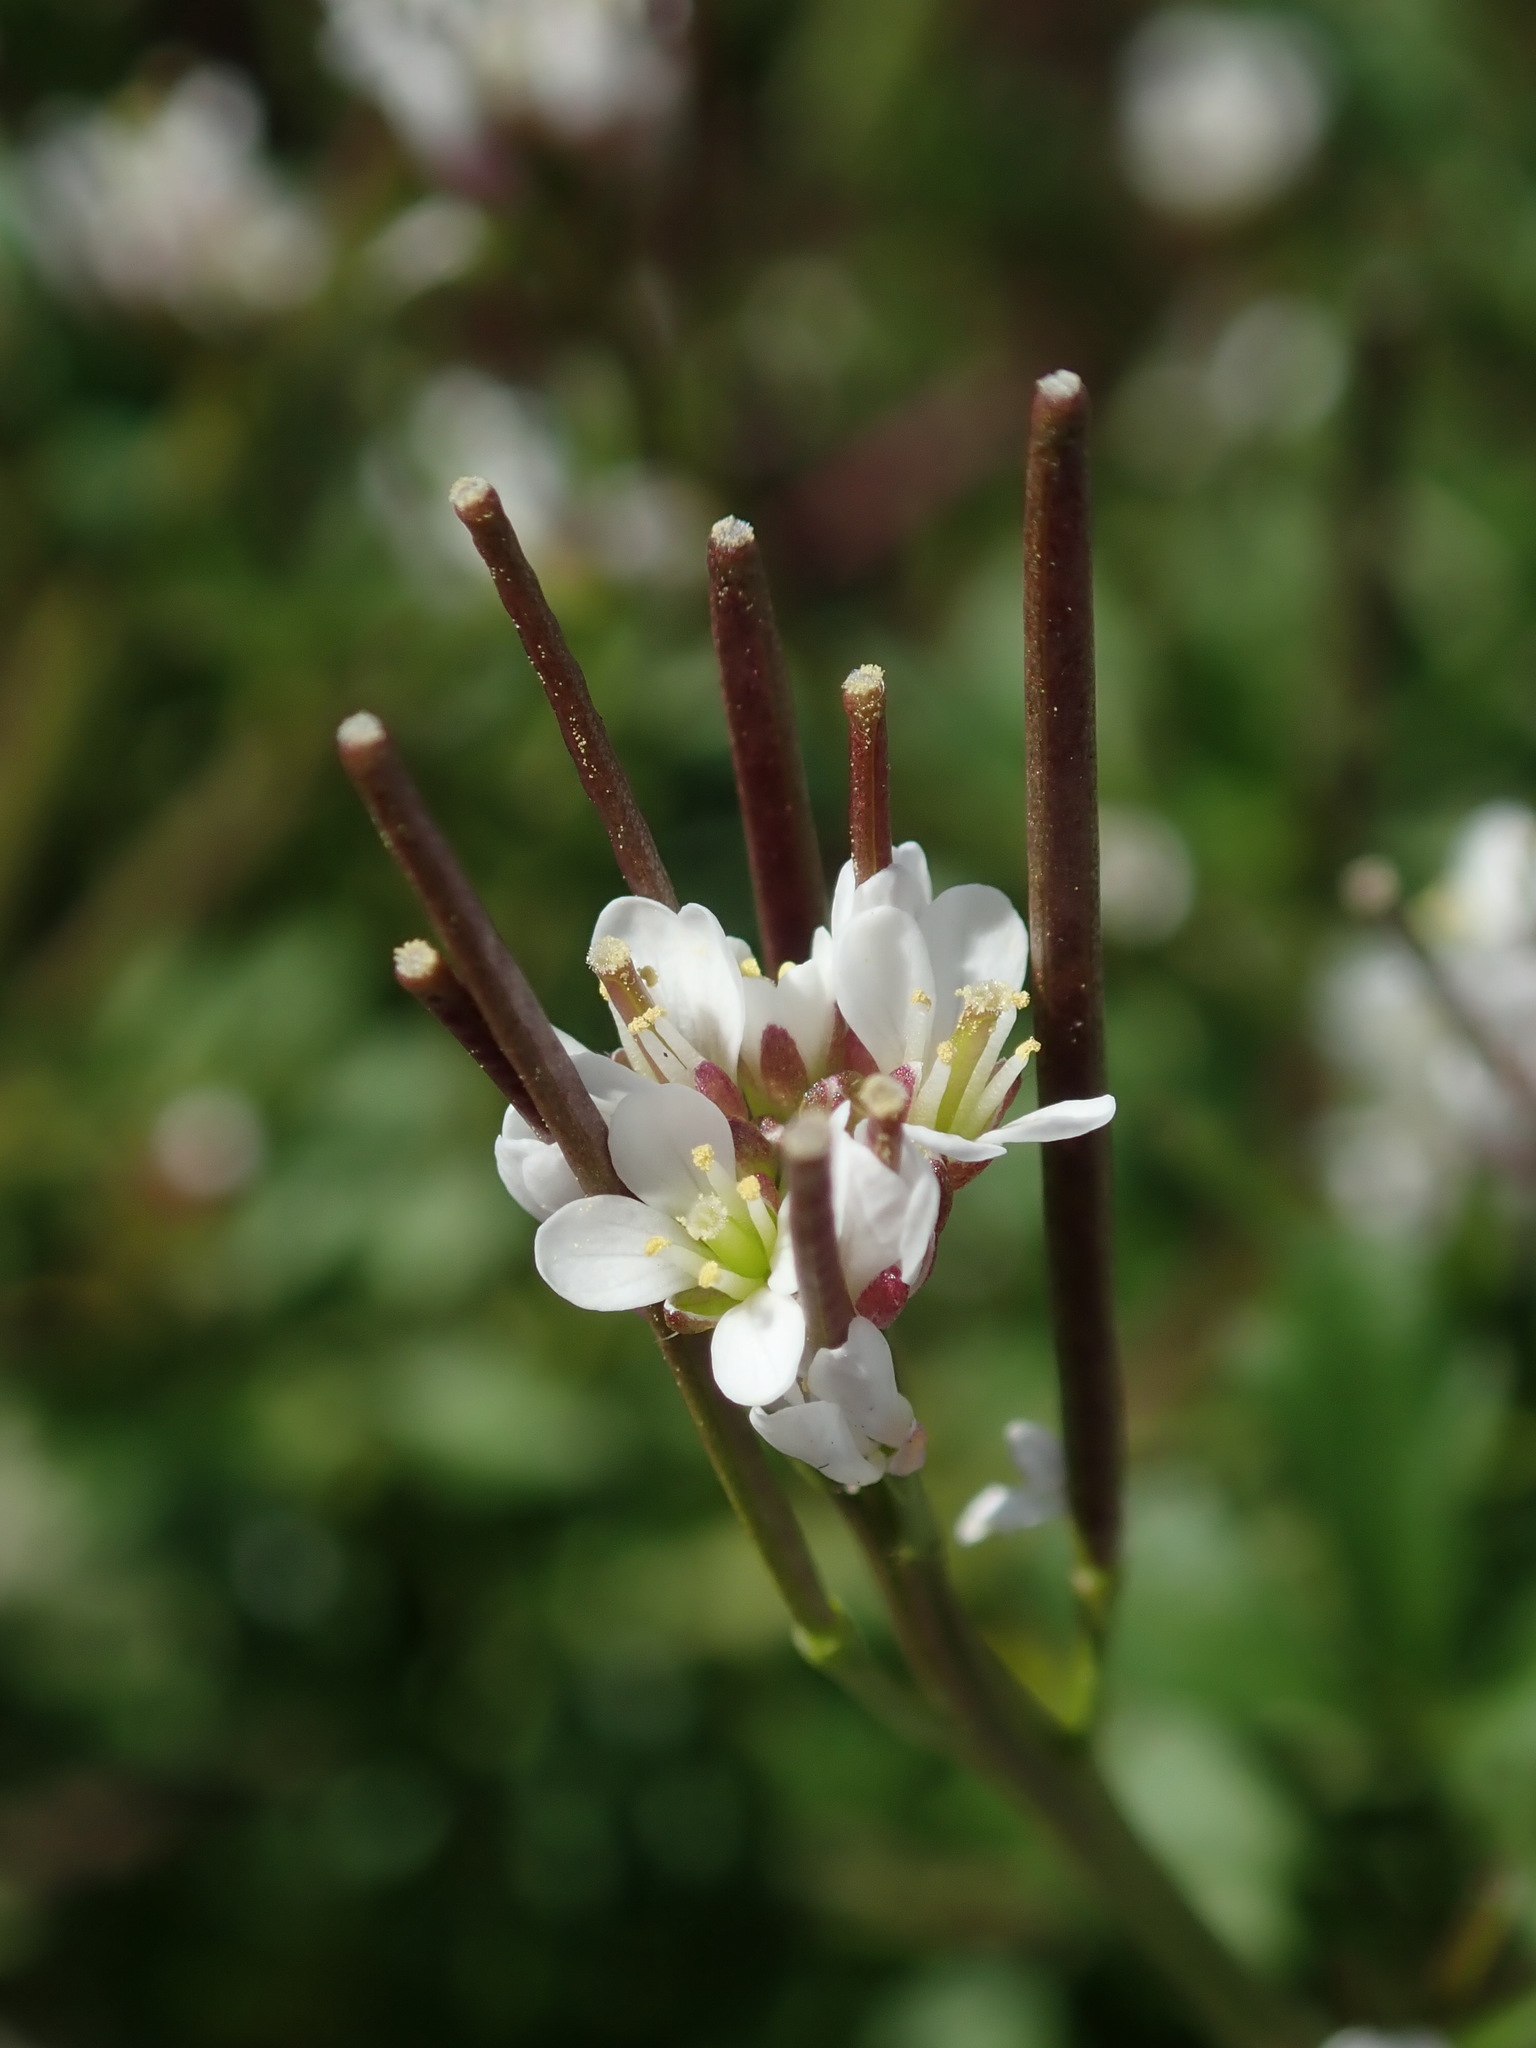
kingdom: Plantae
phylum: Tracheophyta
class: Magnoliopsida
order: Brassicales
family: Brassicaceae
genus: Cardamine
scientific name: Cardamine hirsuta
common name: Hairy bittercress
